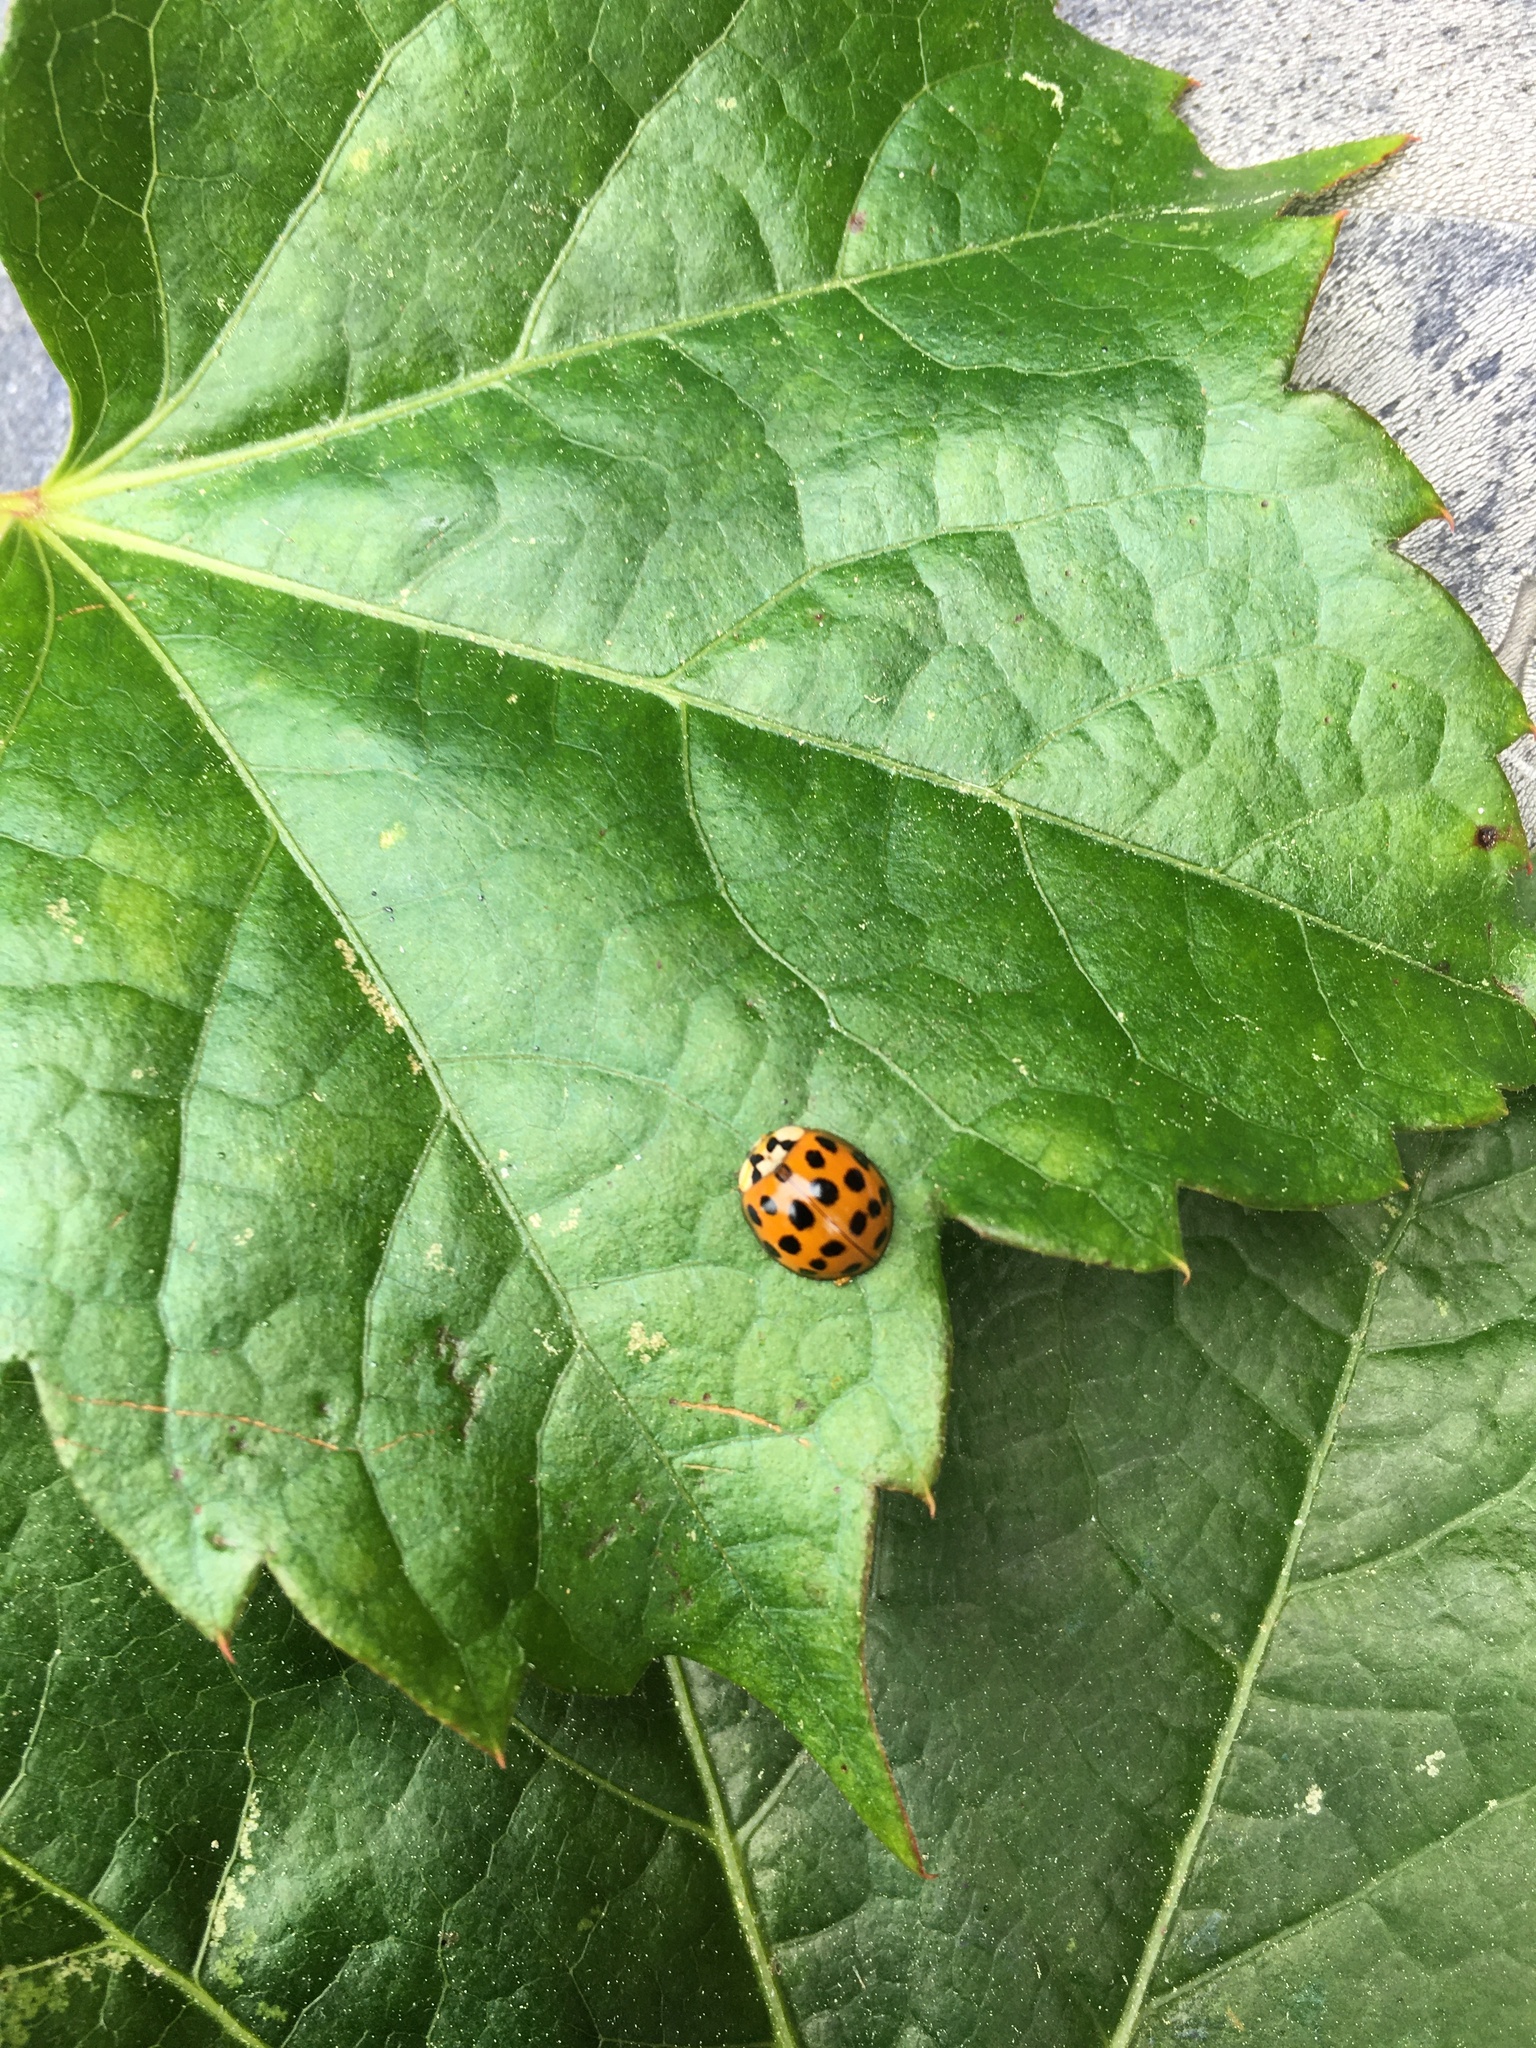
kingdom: Animalia
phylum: Arthropoda
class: Insecta
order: Coleoptera
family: Coccinellidae
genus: Harmonia
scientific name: Harmonia axyridis
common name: Harlequin ladybird
